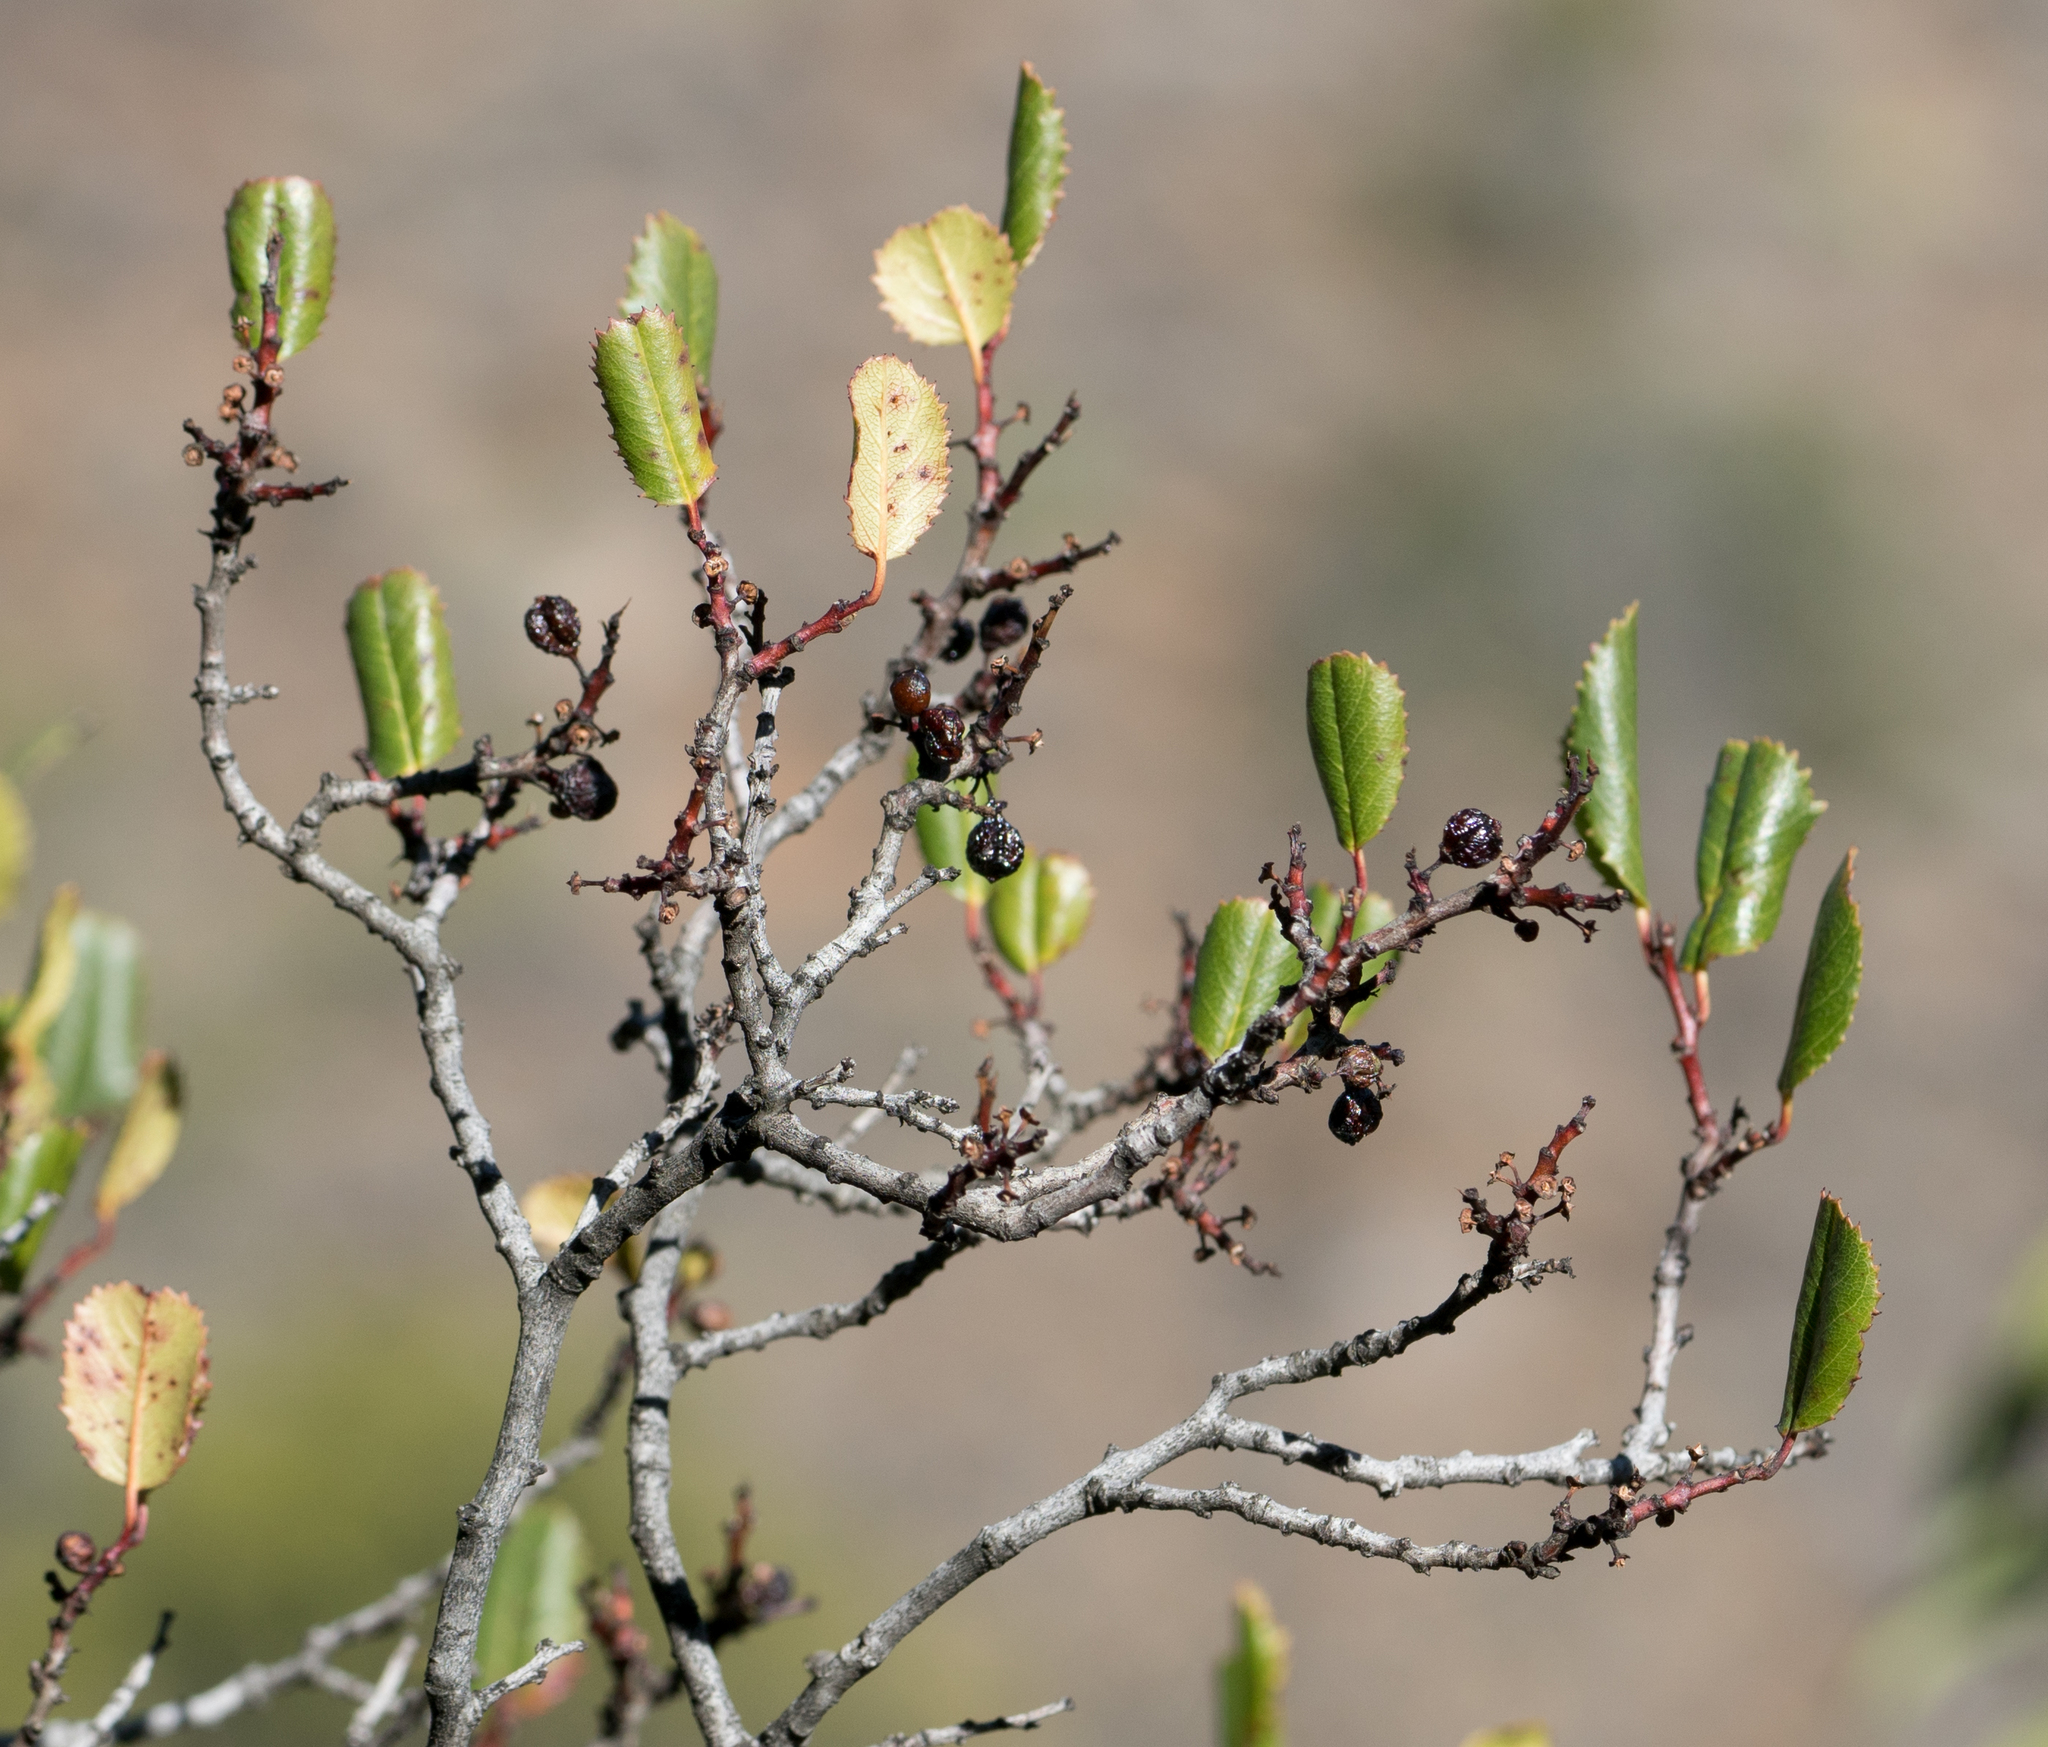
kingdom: Plantae
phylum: Tracheophyta
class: Magnoliopsida
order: Rosales
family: Rhamnaceae
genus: Endotropis
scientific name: Endotropis crocea
